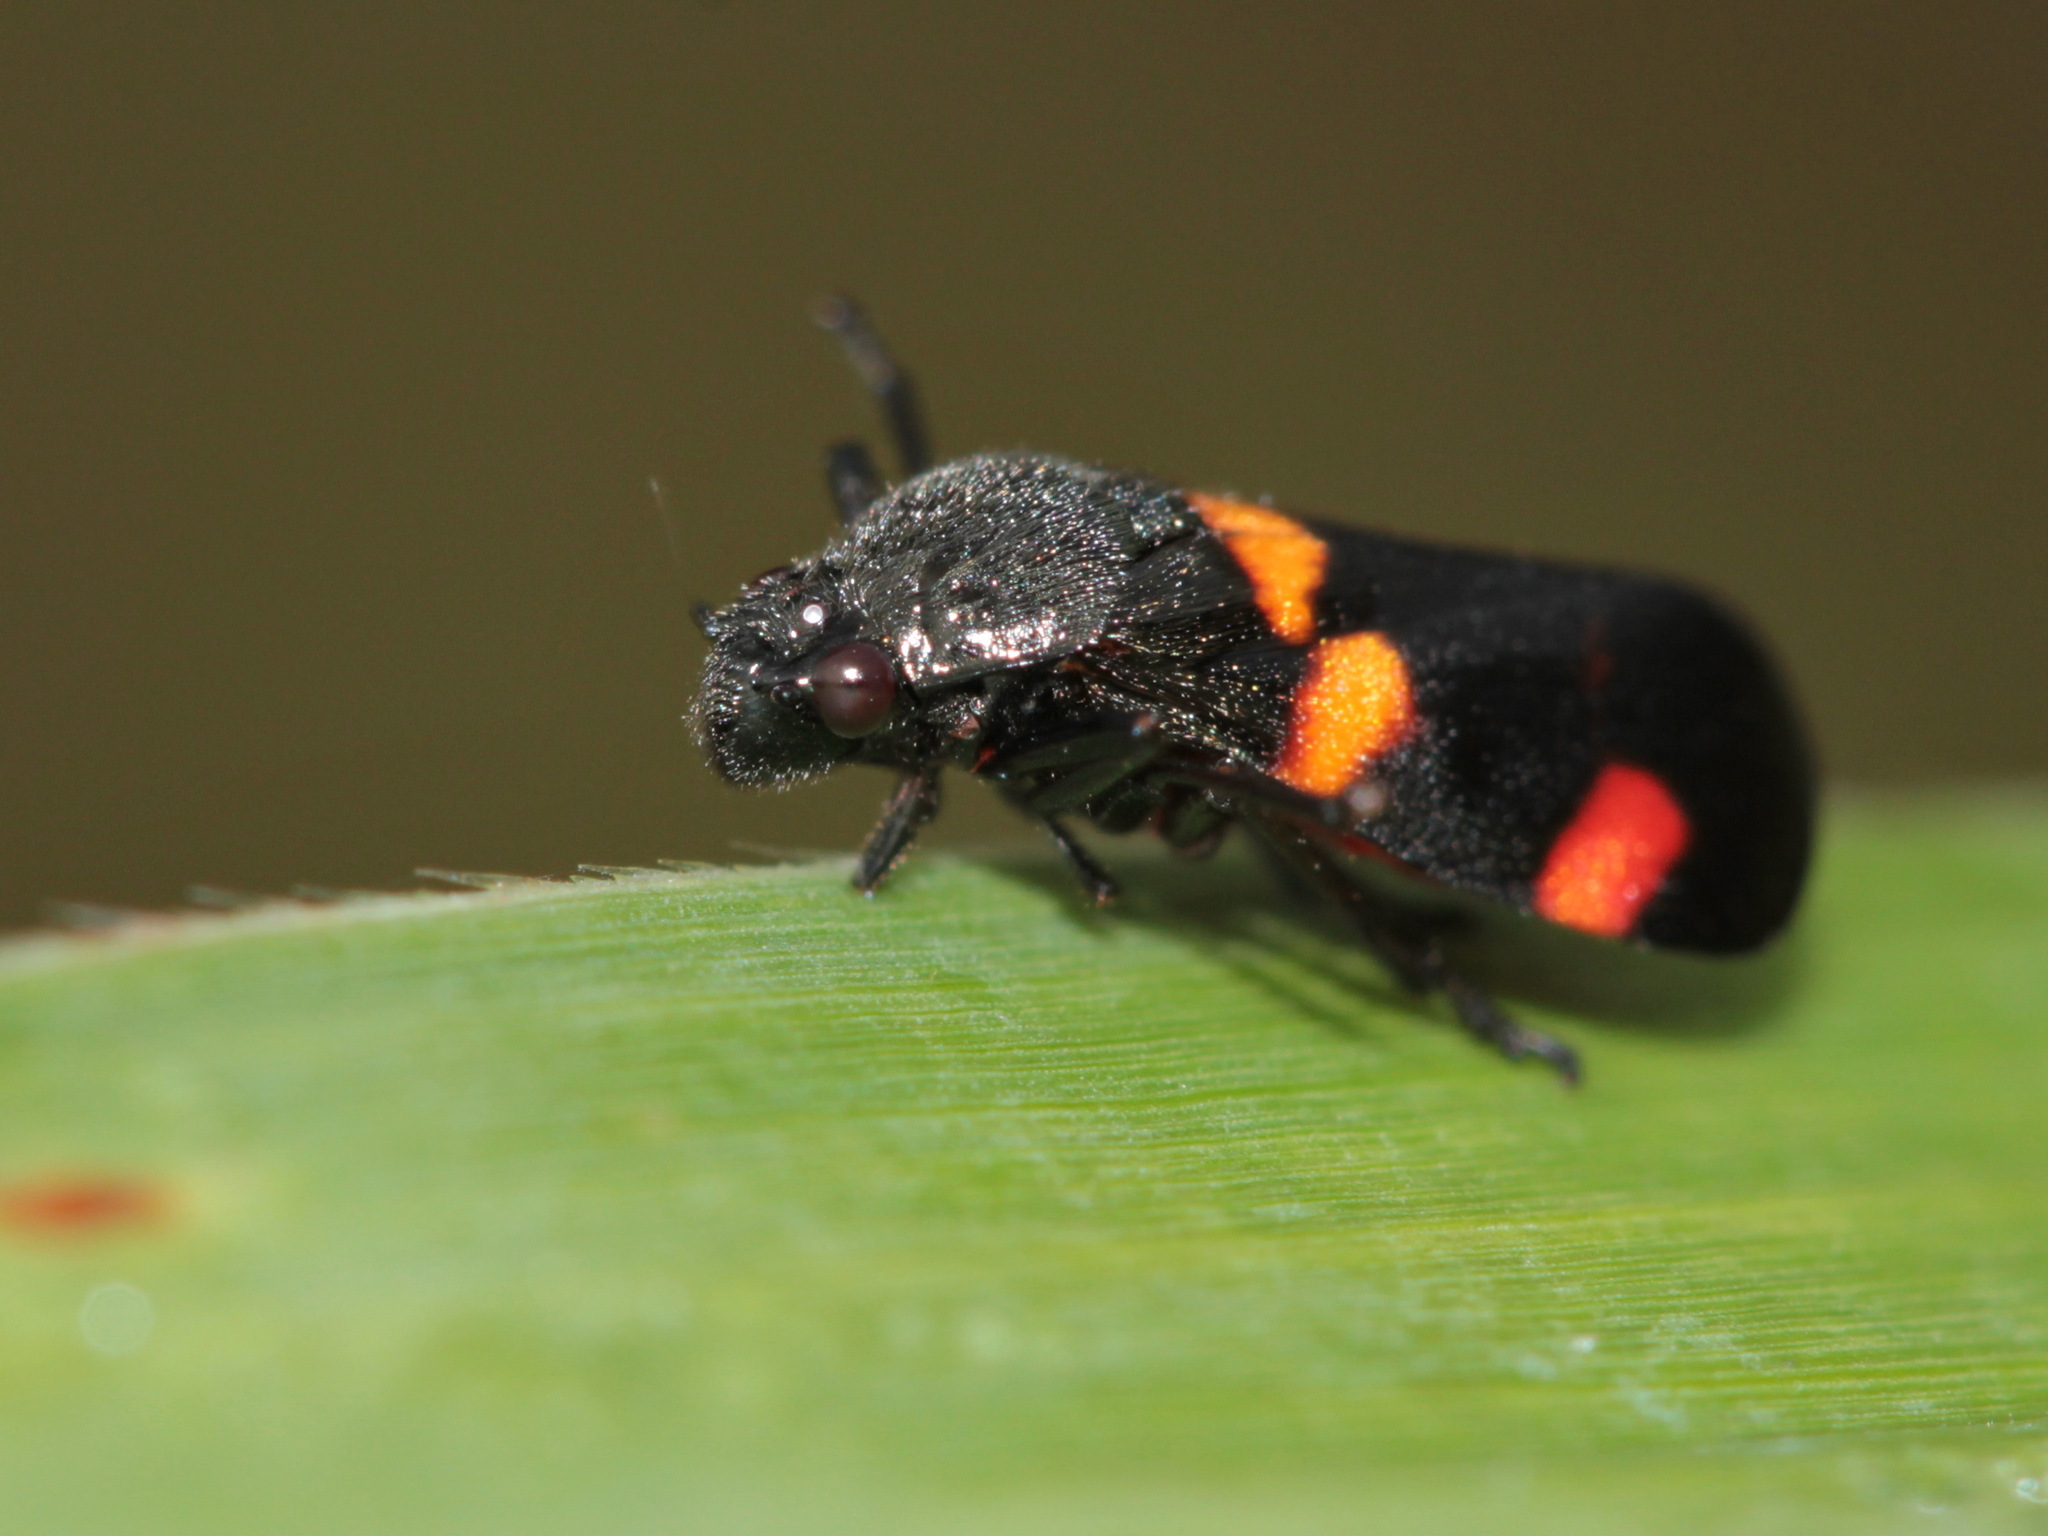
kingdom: Animalia
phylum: Arthropoda
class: Insecta
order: Hemiptera
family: Cercopidae
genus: Callitettix
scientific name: Callitettix carinifrons
